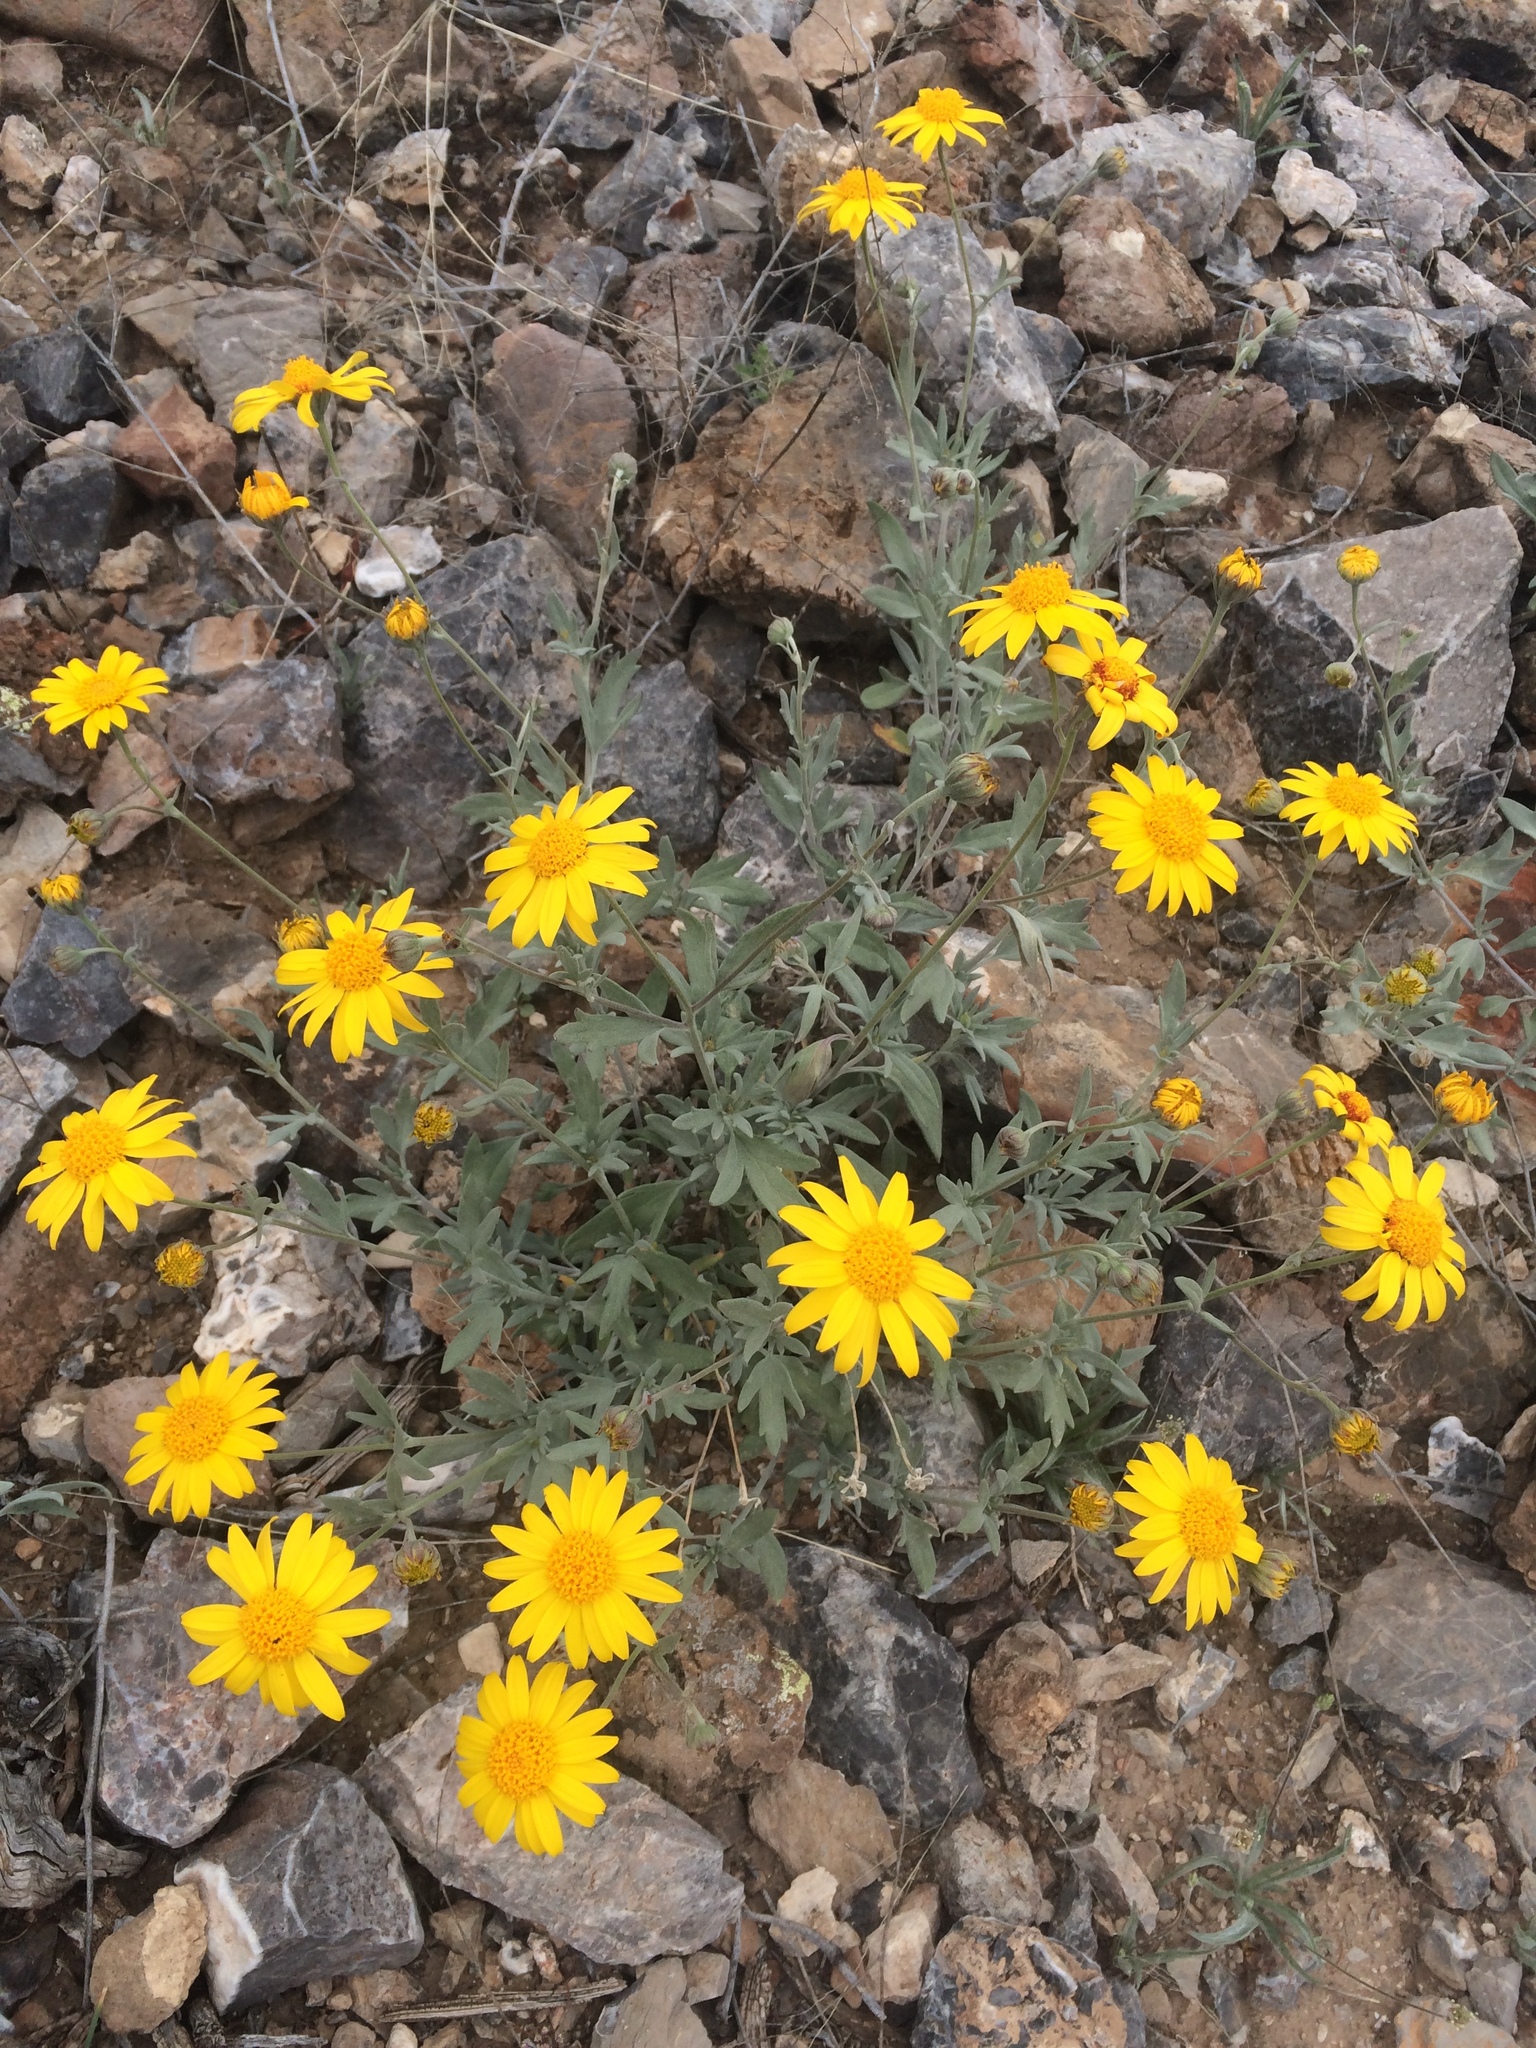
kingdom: Plantae
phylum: Tracheophyta
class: Magnoliopsida
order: Asterales
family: Asteraceae
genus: Picradeniopsis
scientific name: Picradeniopsis absinthifolia
